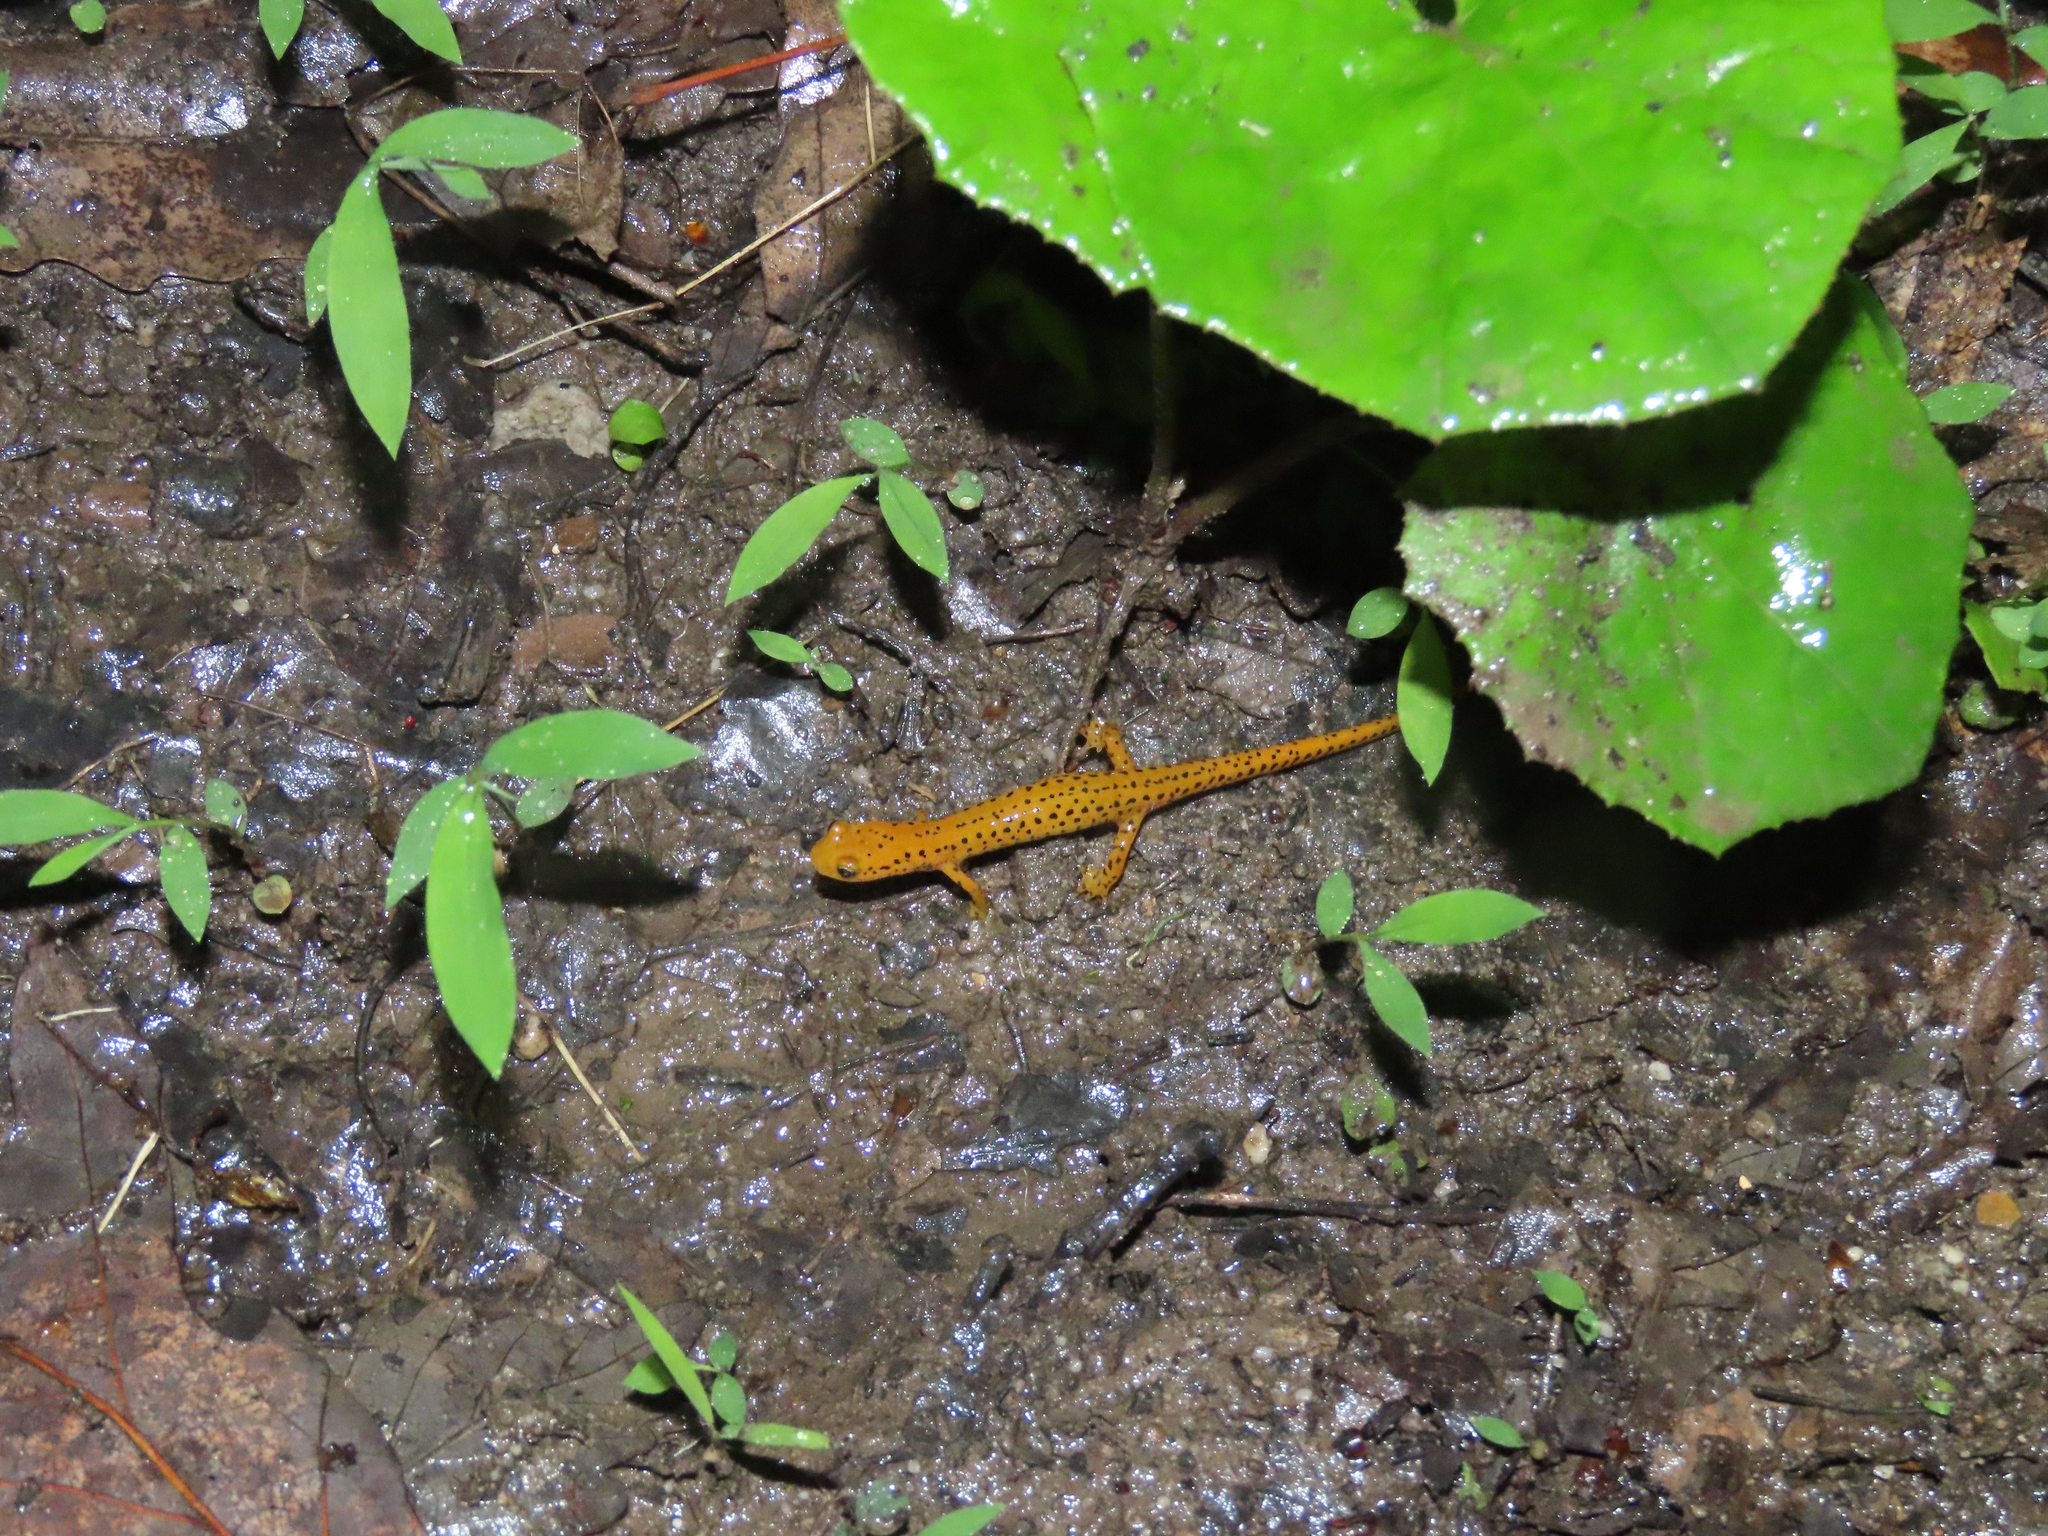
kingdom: Animalia
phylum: Chordata
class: Amphibia
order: Caudata
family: Plethodontidae
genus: Eurycea
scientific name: Eurycea longicauda
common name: Long-tailed salamander
